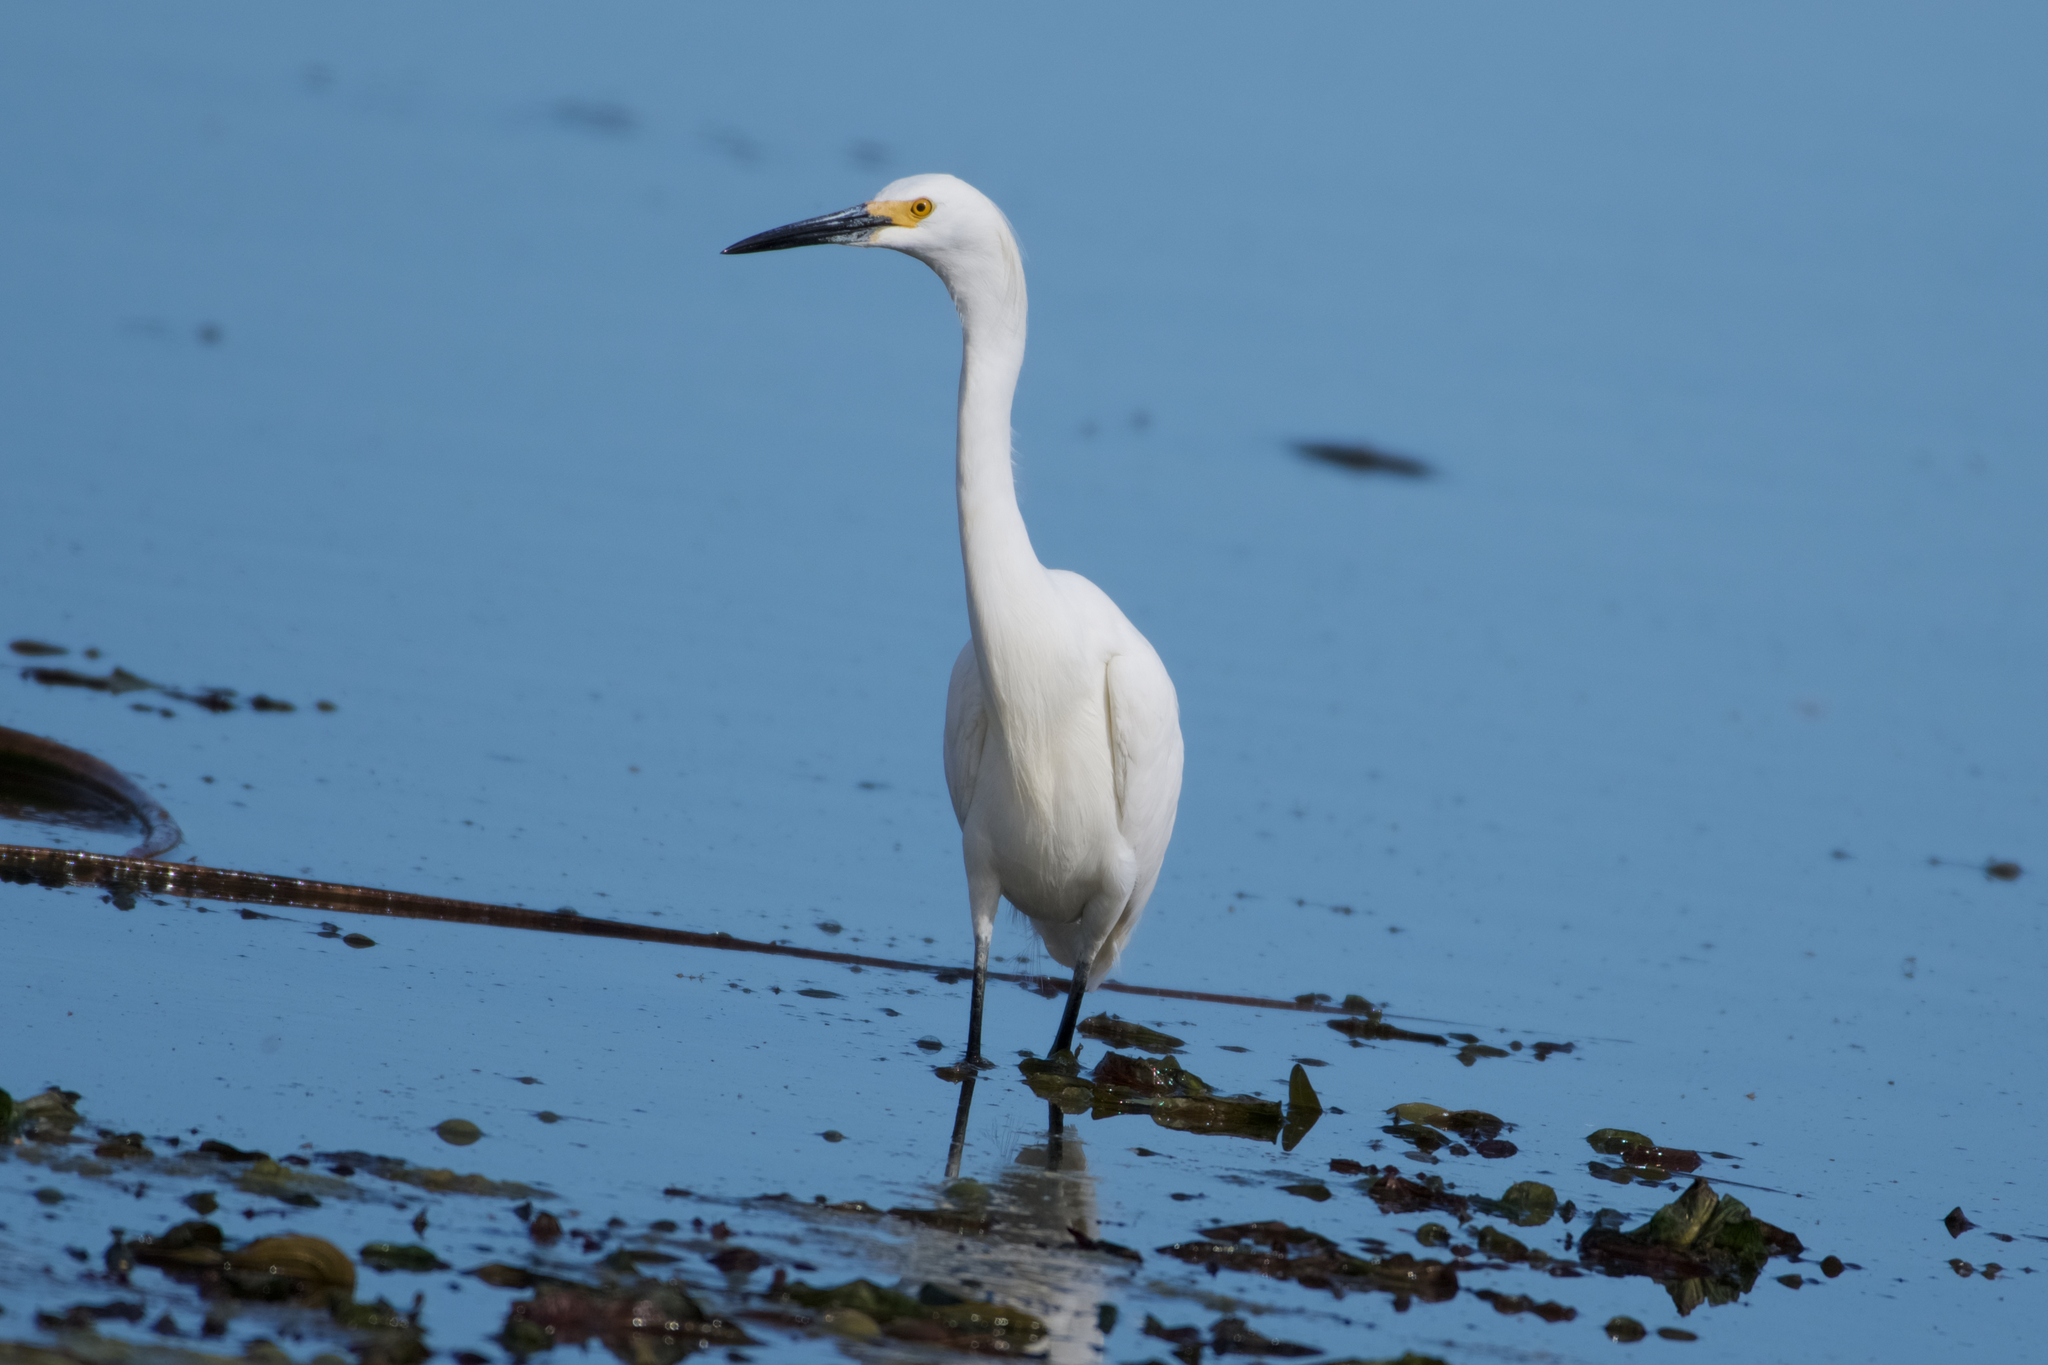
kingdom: Animalia
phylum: Chordata
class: Aves
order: Pelecaniformes
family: Ardeidae
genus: Egretta
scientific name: Egretta thula
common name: Snowy egret
